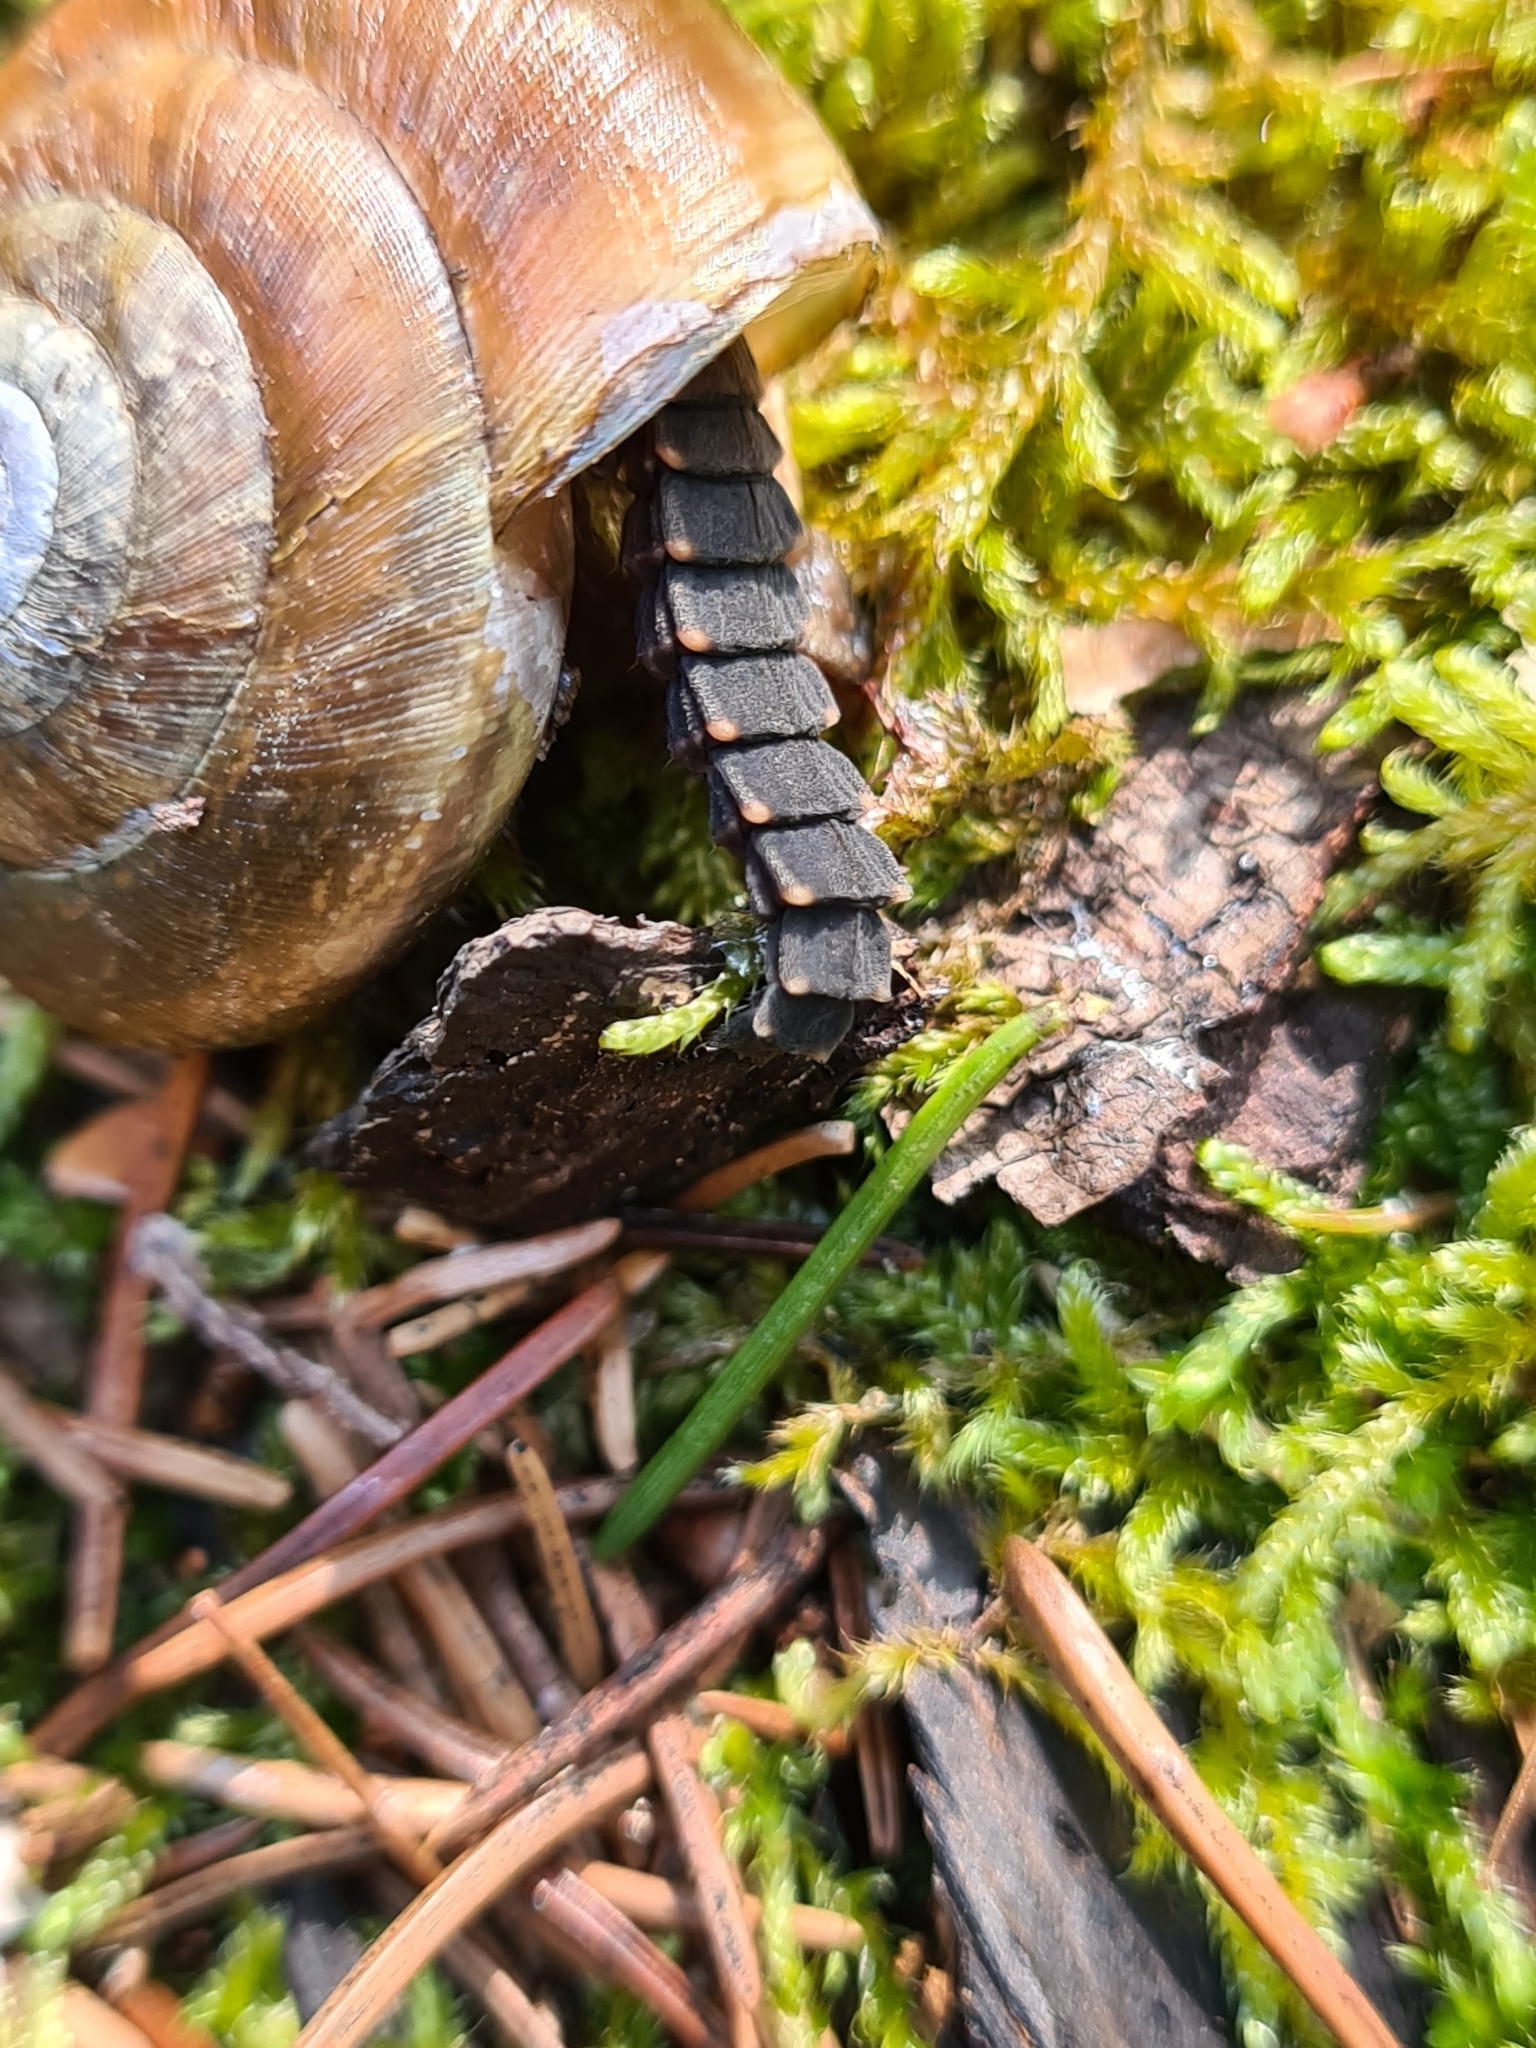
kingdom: Animalia
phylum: Arthropoda
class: Insecta
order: Coleoptera
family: Lampyridae
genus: Lampyris
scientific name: Lampyris noctiluca
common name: Glow-worm
